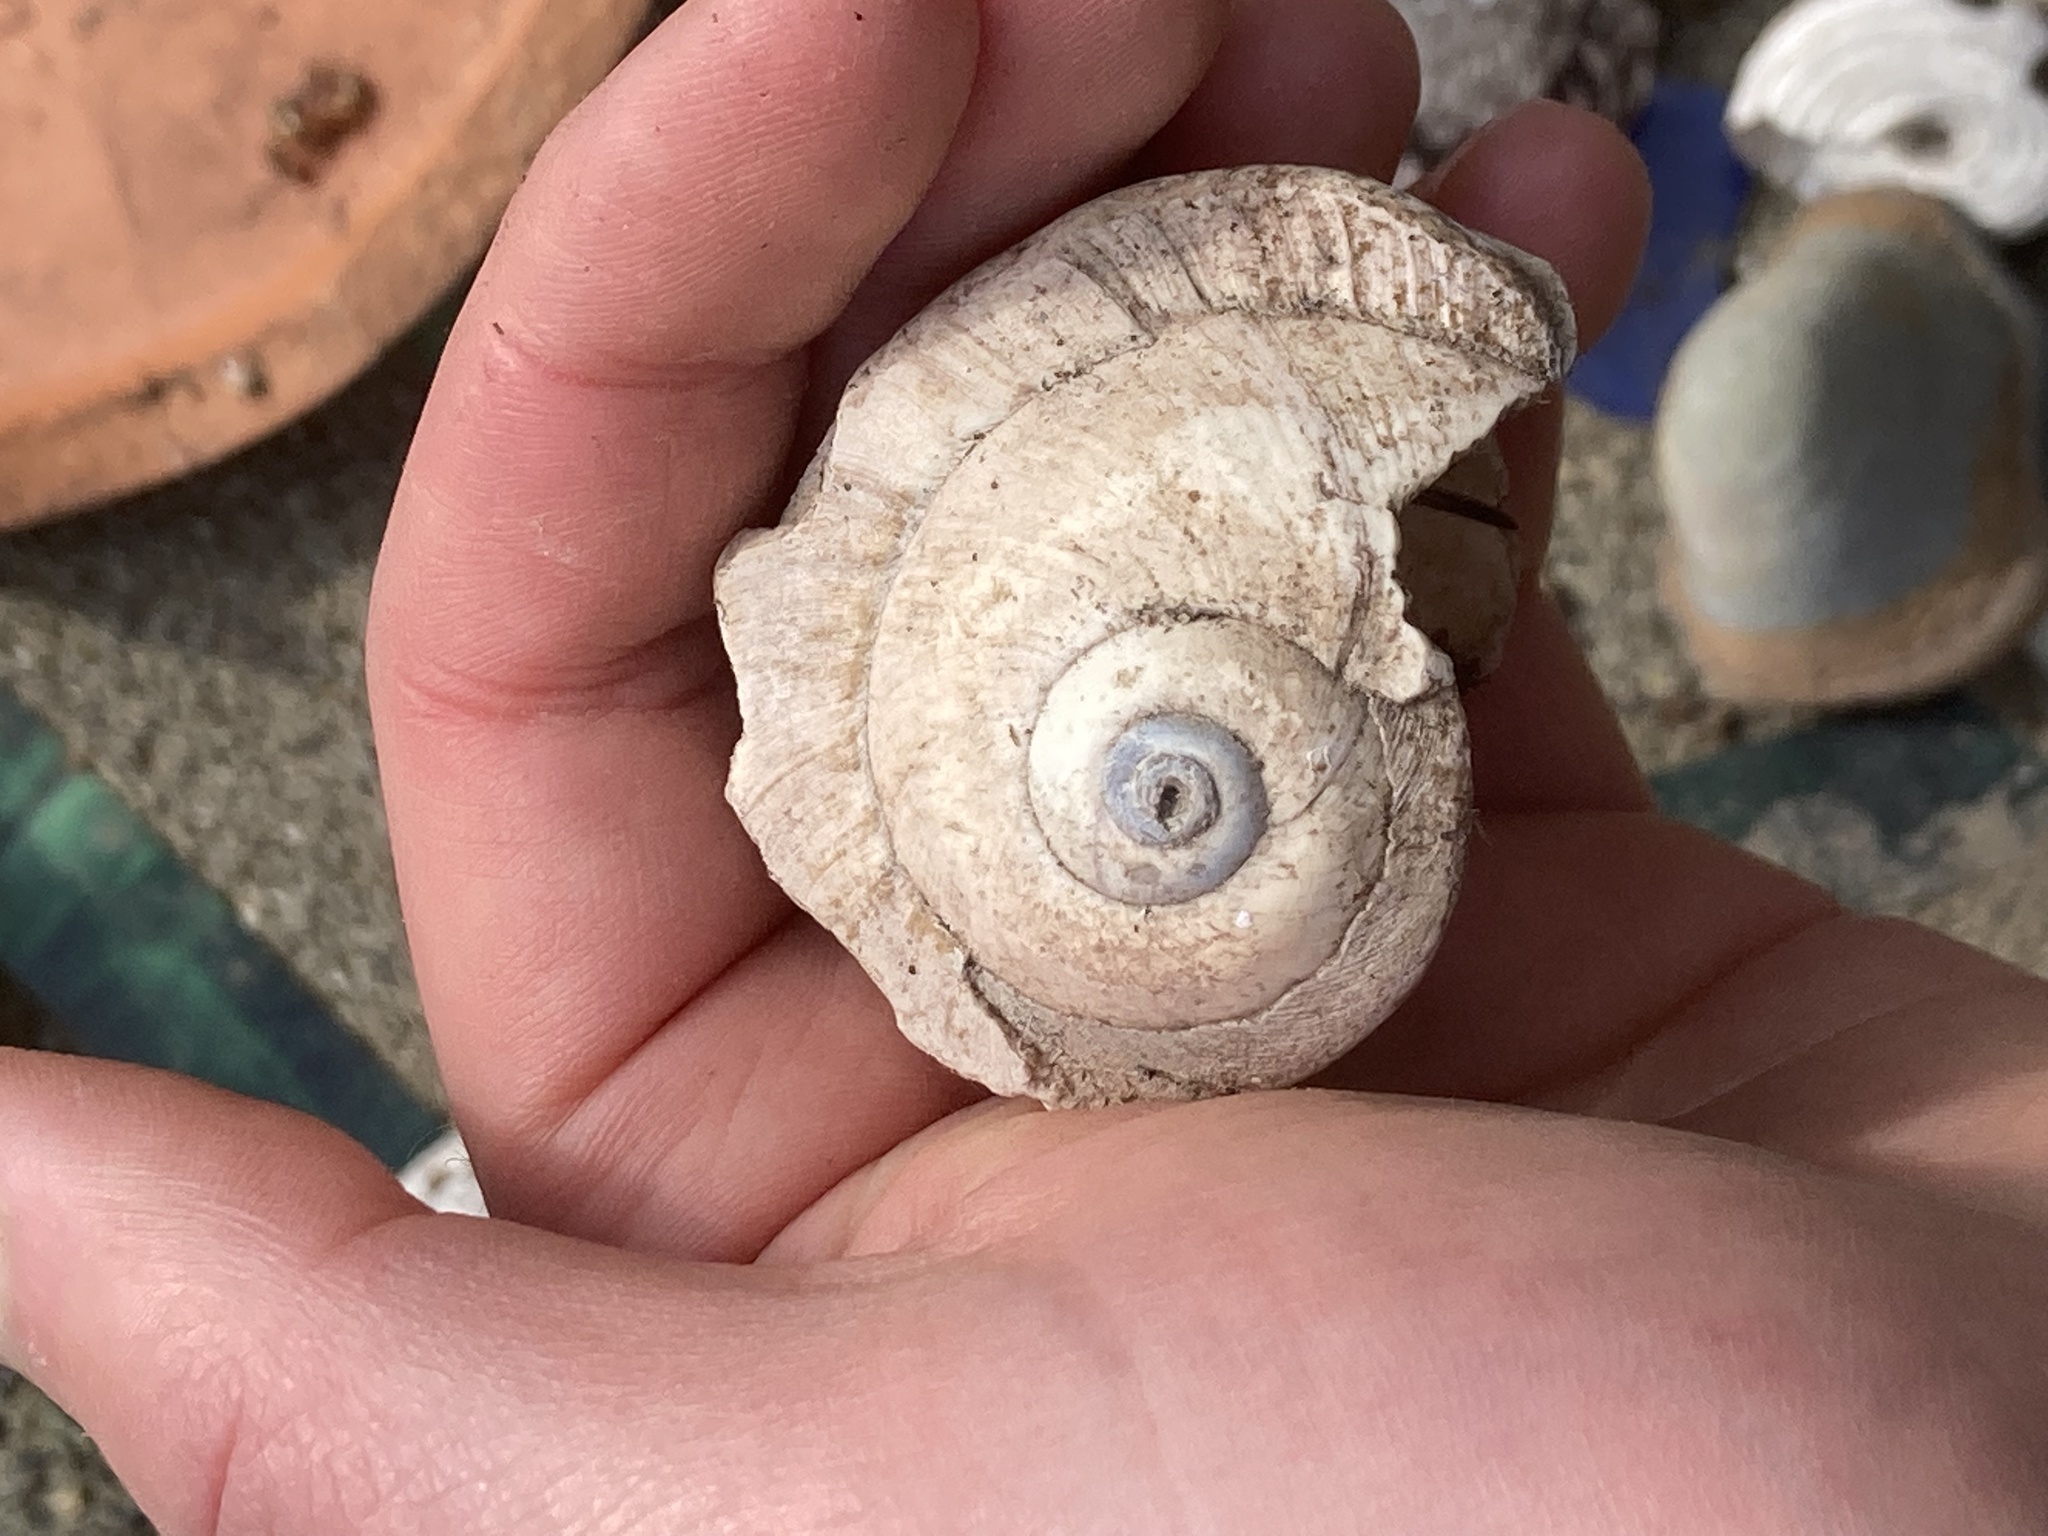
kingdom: Animalia
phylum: Mollusca
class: Gastropoda
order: Littorinimorpha
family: Naticidae
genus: Neverita
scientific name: Neverita lewisii
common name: Lewis' moonsnail
